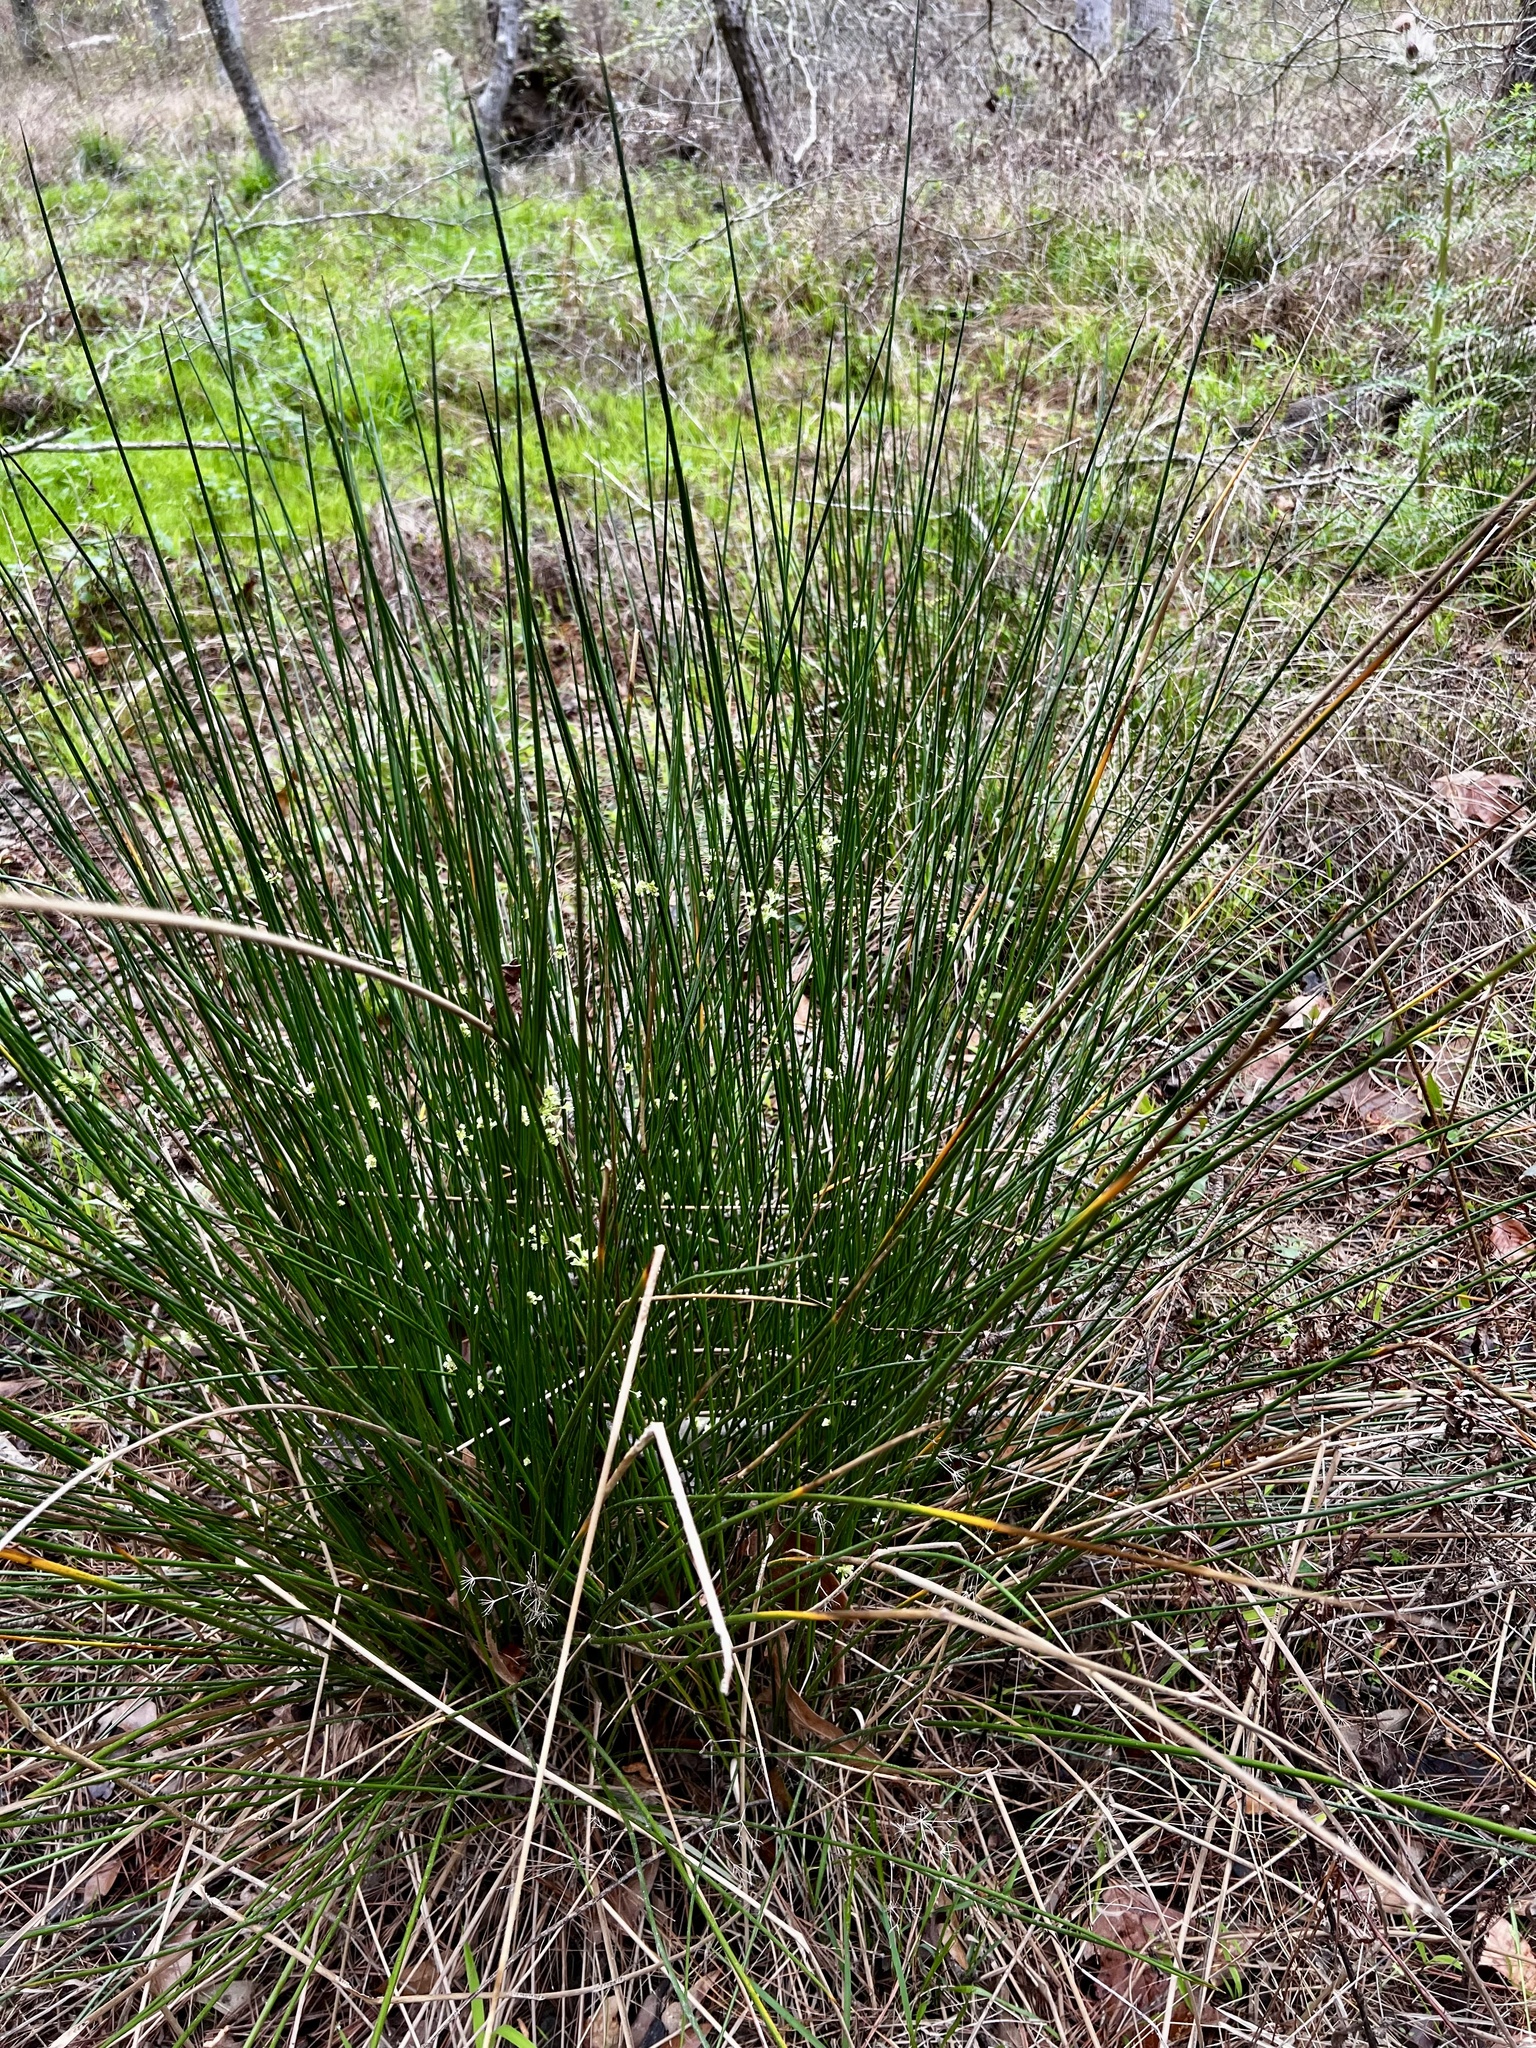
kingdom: Plantae
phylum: Tracheophyta
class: Liliopsida
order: Poales
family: Juncaceae
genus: Juncus
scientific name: Juncus effusus
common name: Soft rush
